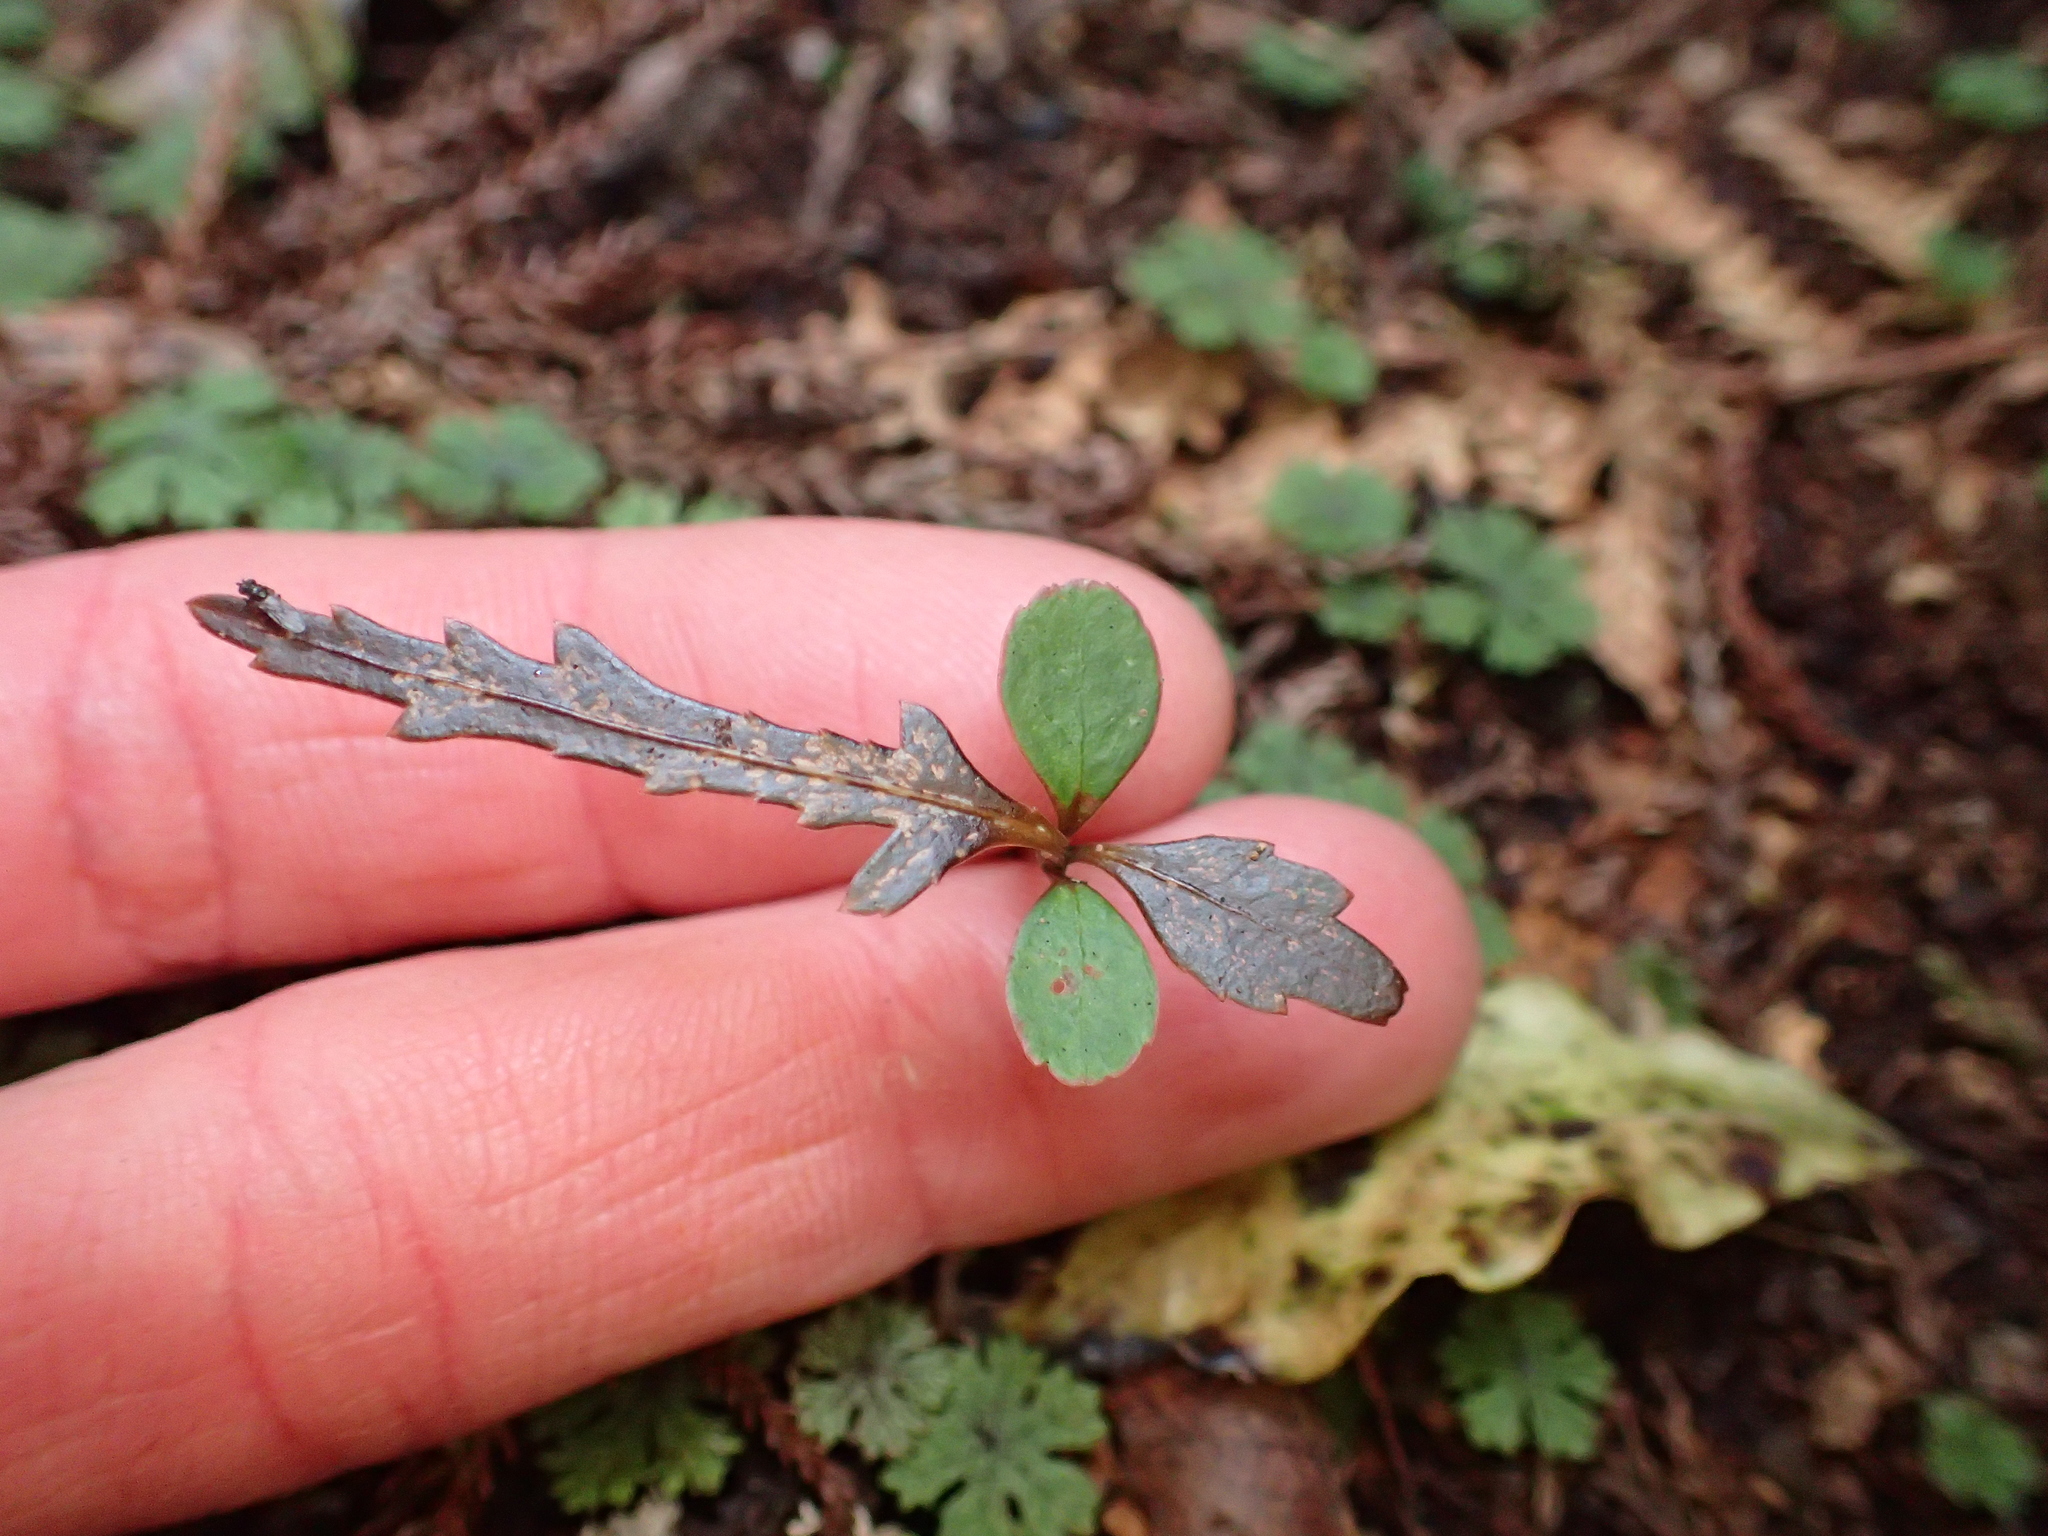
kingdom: Plantae
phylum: Tracheophyta
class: Magnoliopsida
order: Apiales
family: Araliaceae
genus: Pseudopanax
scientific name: Pseudopanax crassifolius
